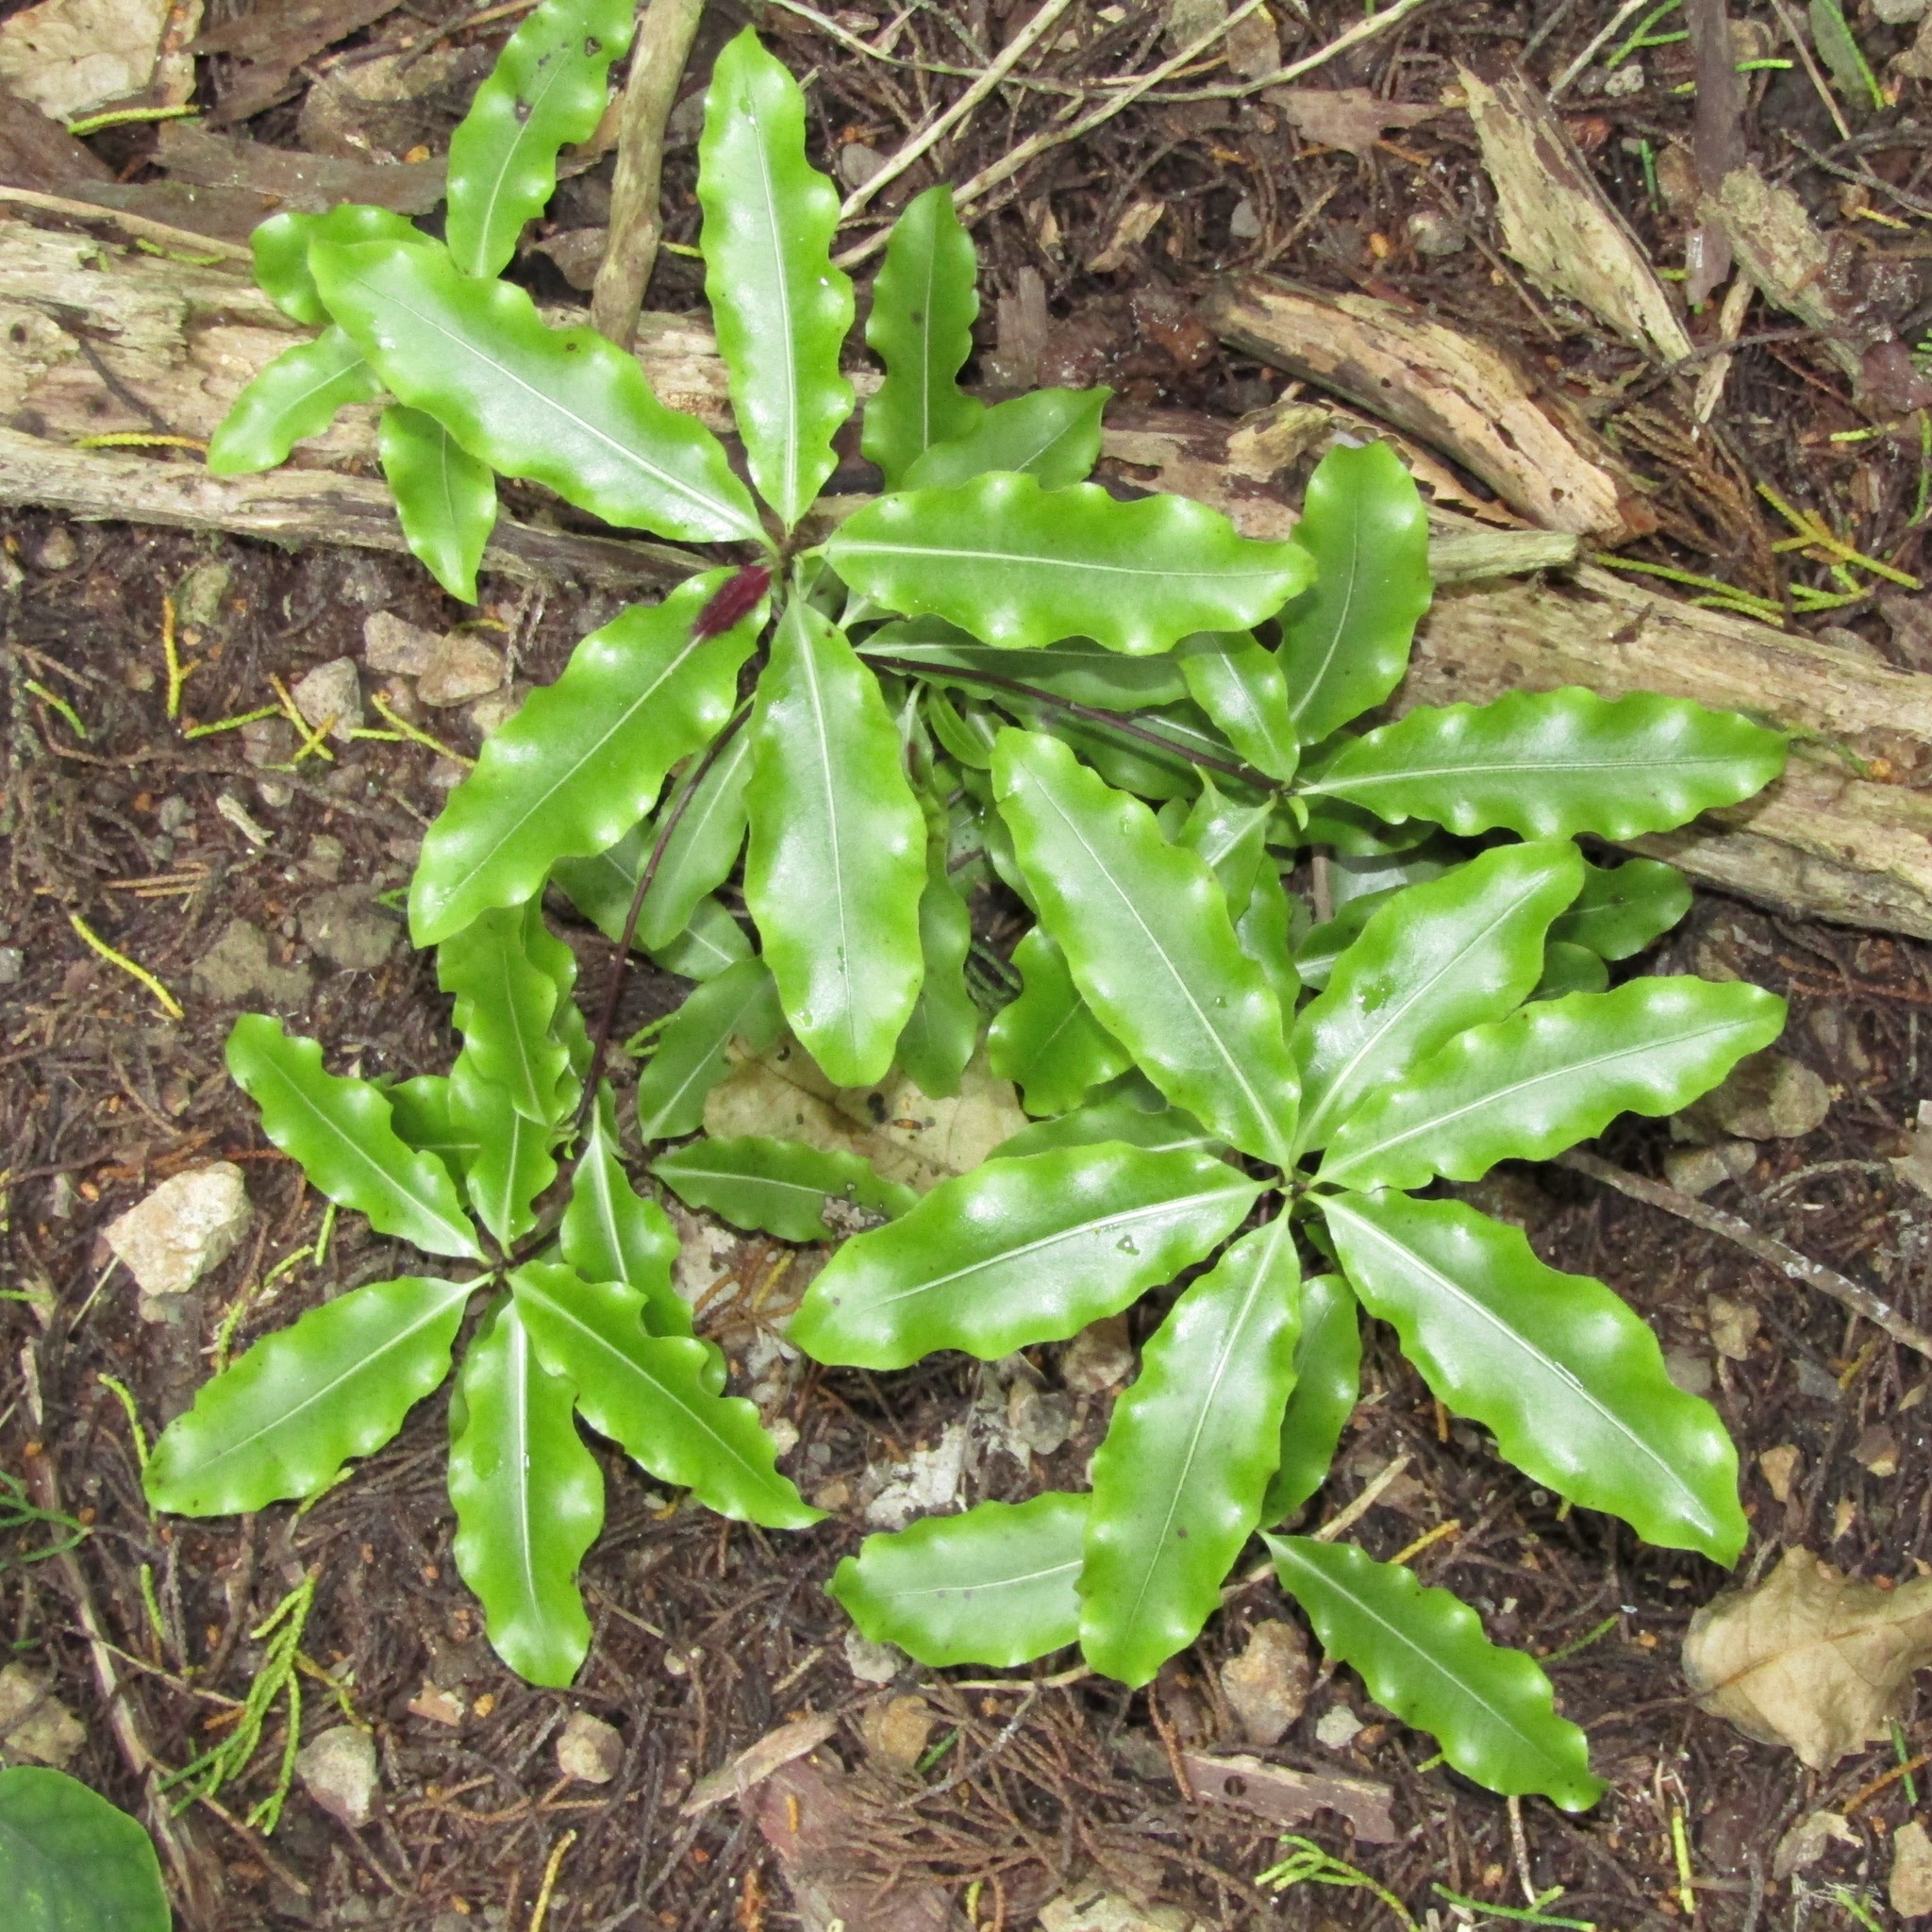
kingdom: Plantae
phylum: Tracheophyta
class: Magnoliopsida
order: Apiales
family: Pittosporaceae
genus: Pittosporum
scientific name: Pittosporum eugenioides
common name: Lemonwood
